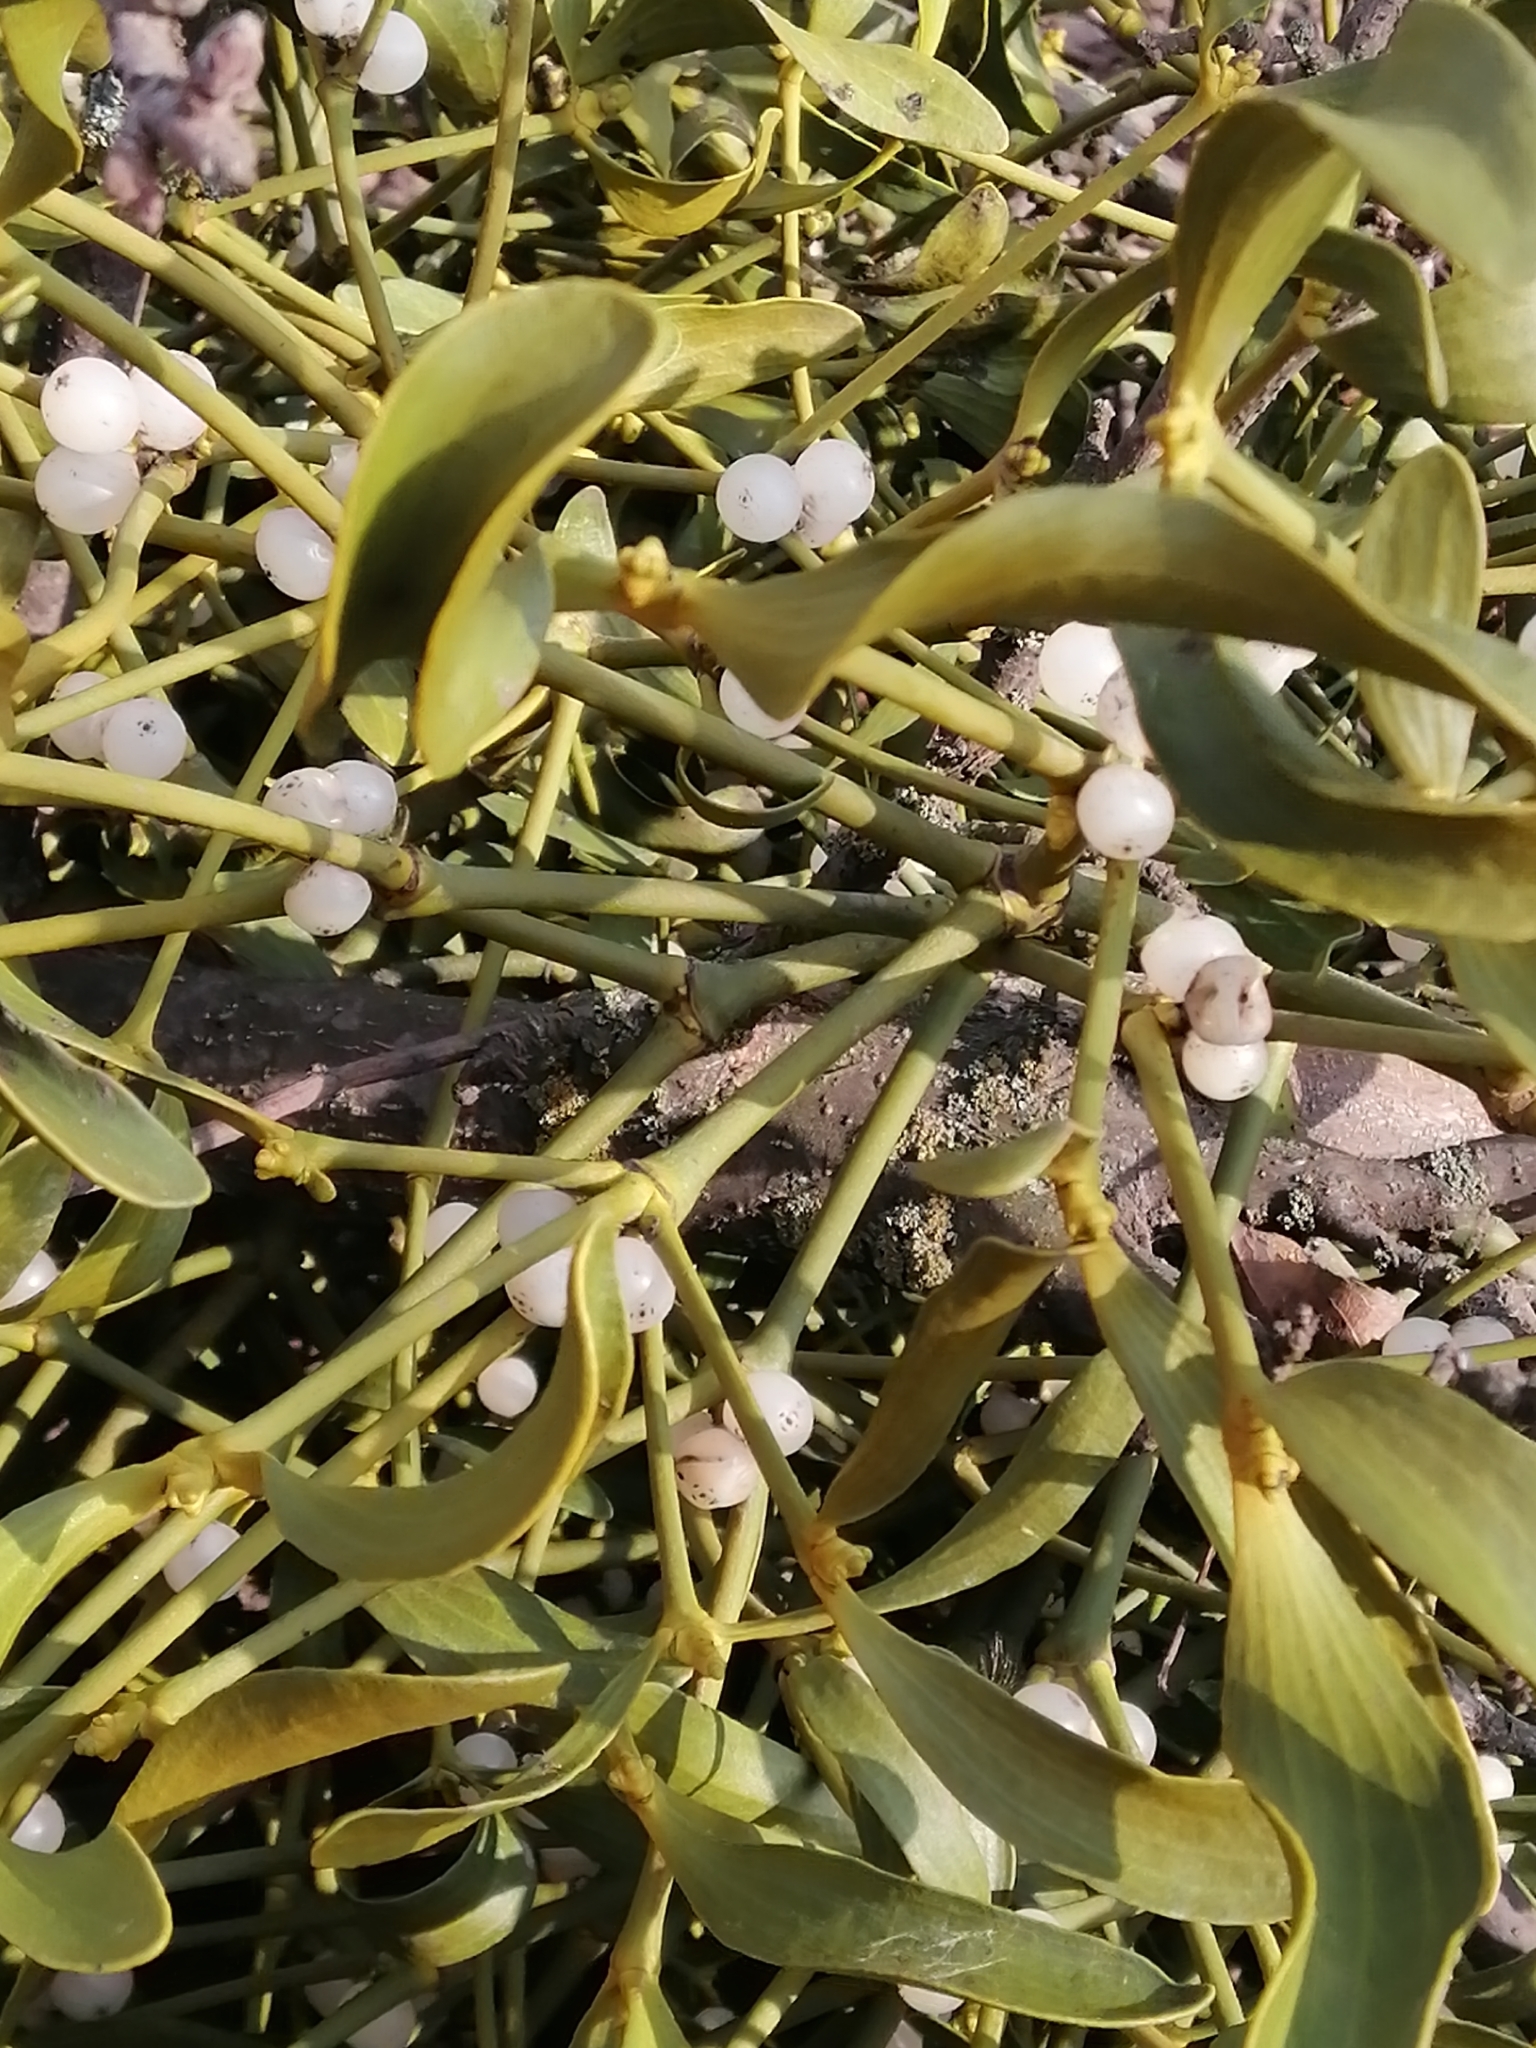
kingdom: Plantae
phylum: Tracheophyta
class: Magnoliopsida
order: Santalales
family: Viscaceae
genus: Viscum
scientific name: Viscum album
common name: Mistletoe
